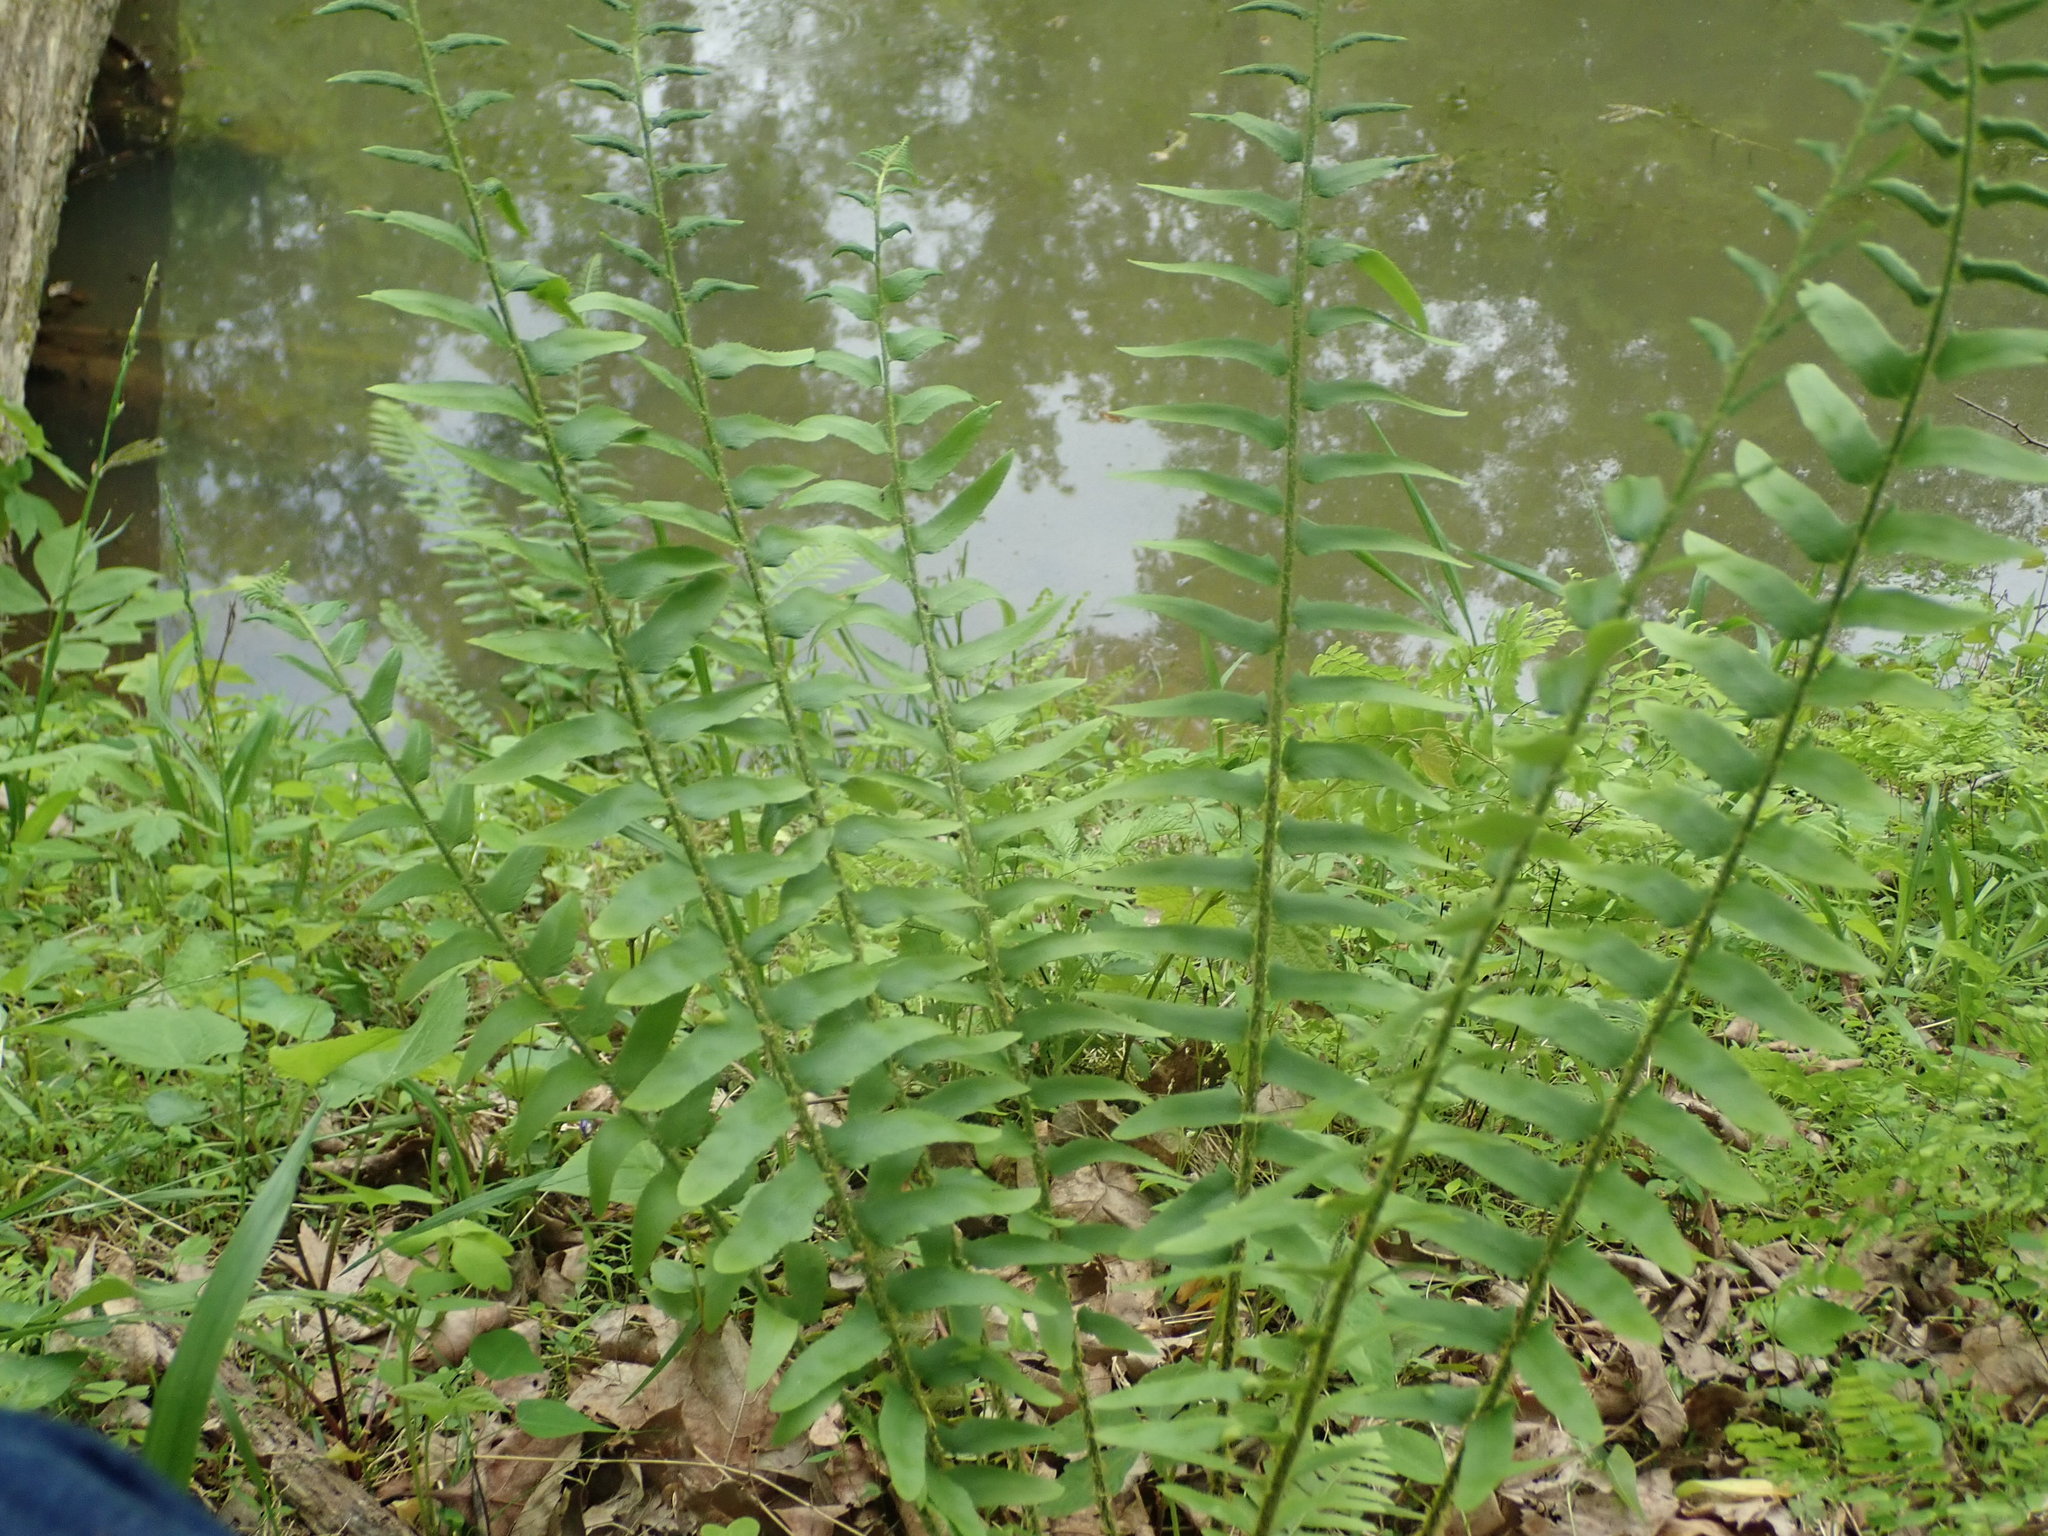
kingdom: Plantae
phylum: Tracheophyta
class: Polypodiopsida
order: Polypodiales
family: Dryopteridaceae
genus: Polystichum
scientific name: Polystichum acrostichoides
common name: Christmas fern
